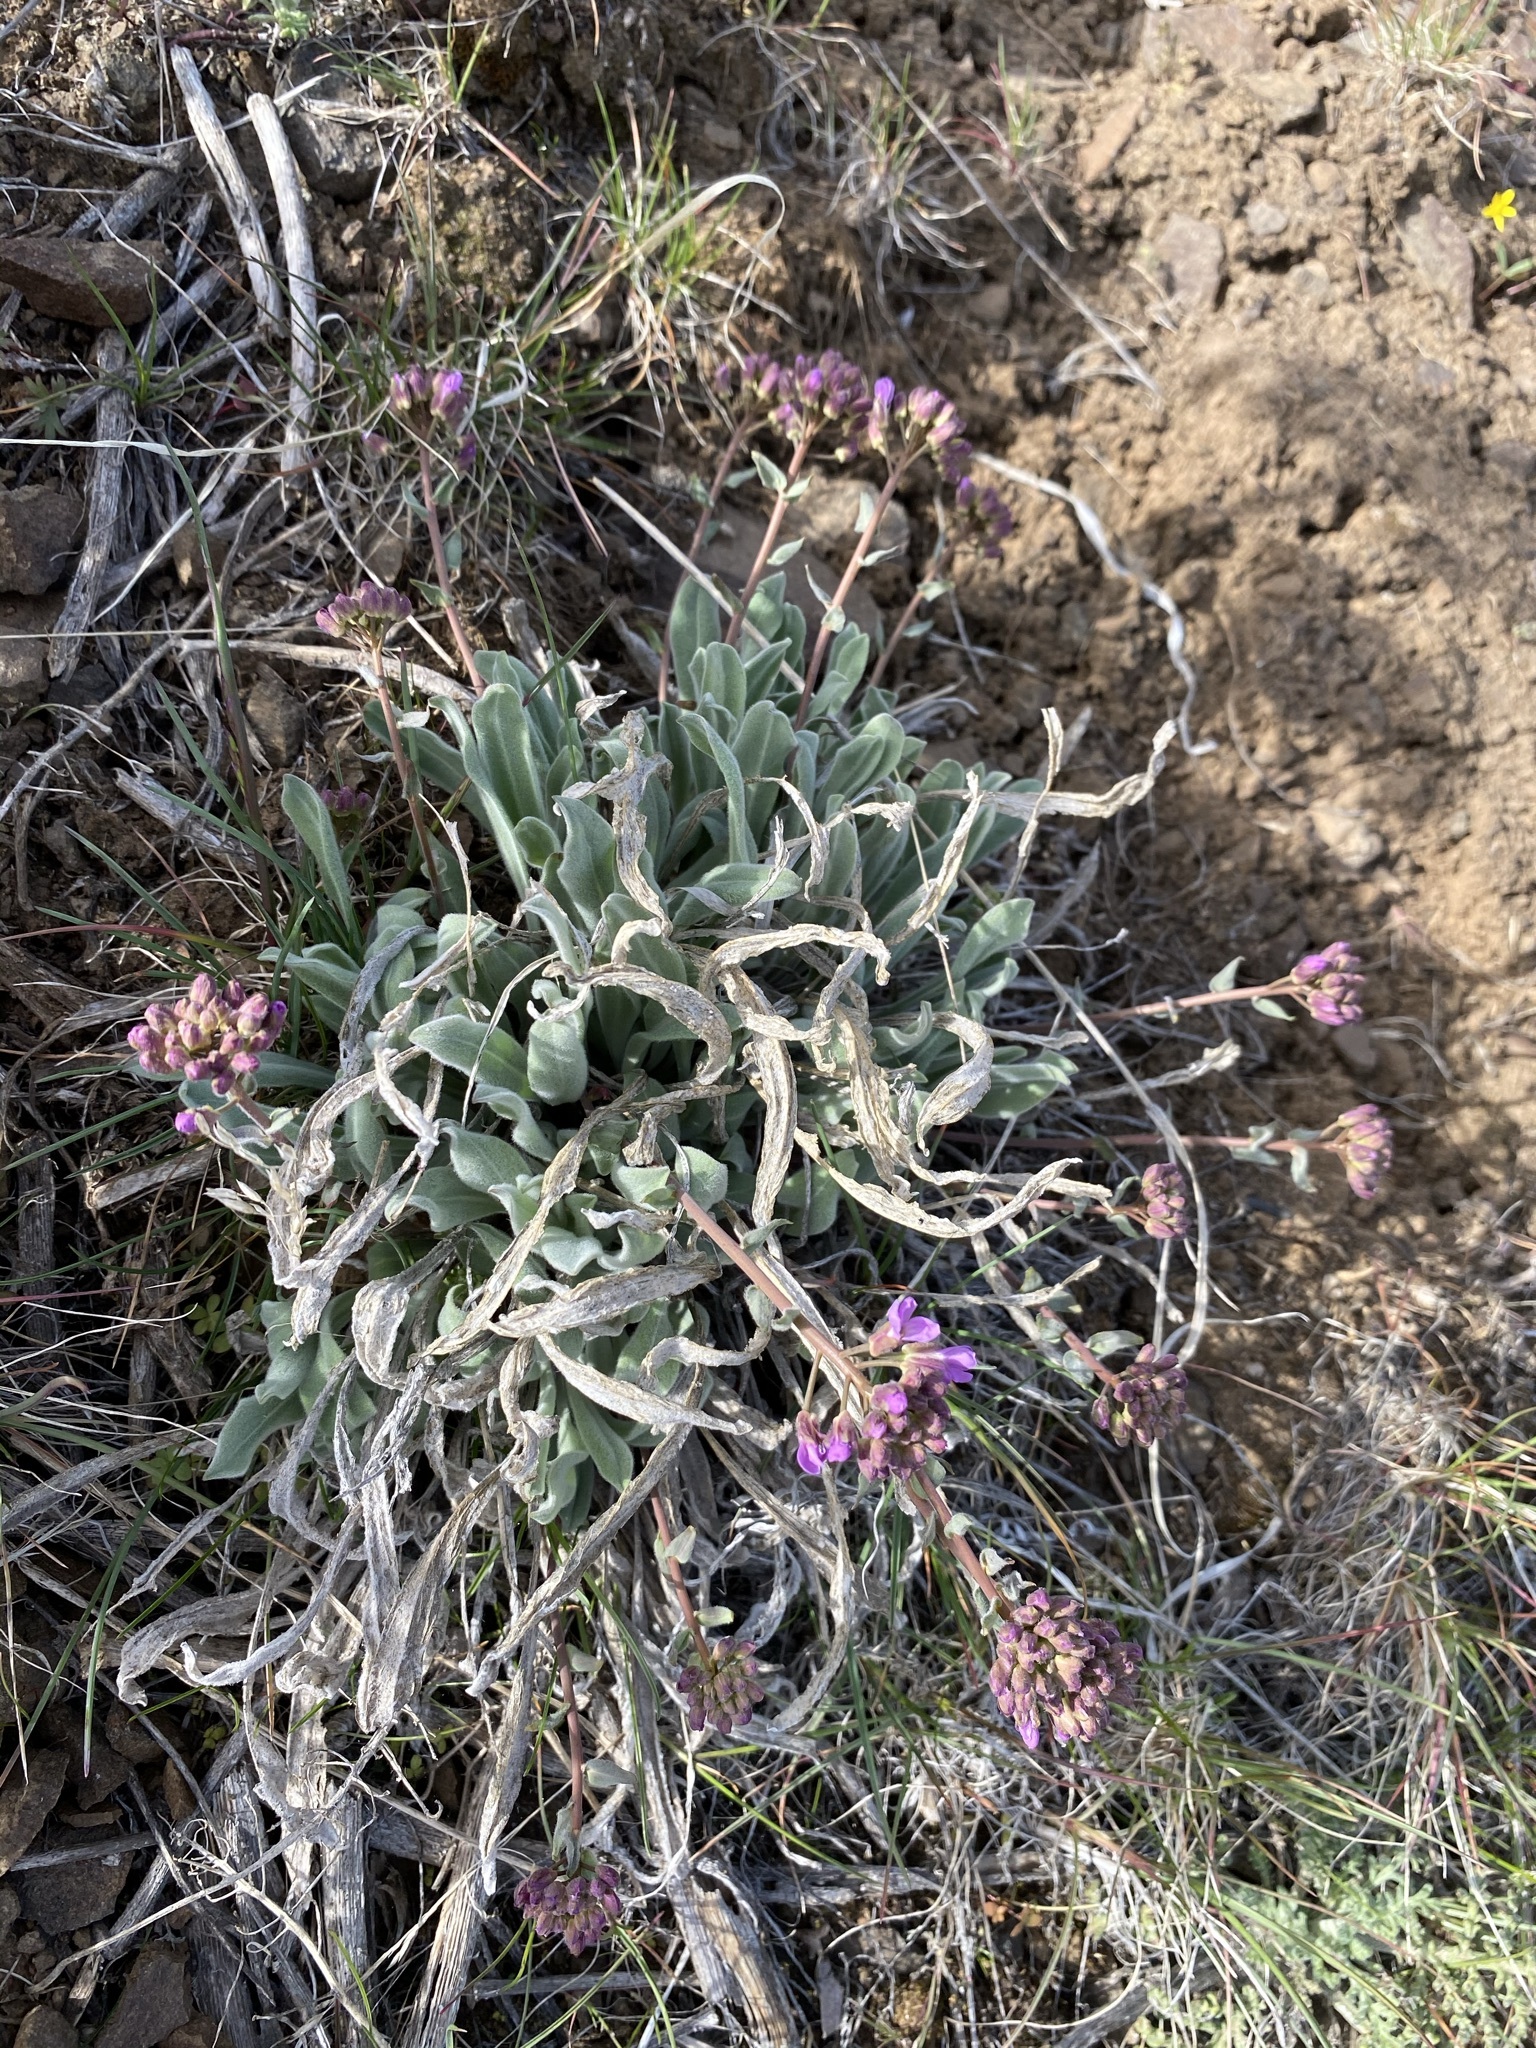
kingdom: Plantae
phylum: Tracheophyta
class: Magnoliopsida
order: Brassicales
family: Brassicaceae
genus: Phoenicaulis
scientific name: Phoenicaulis cheiranthoides
